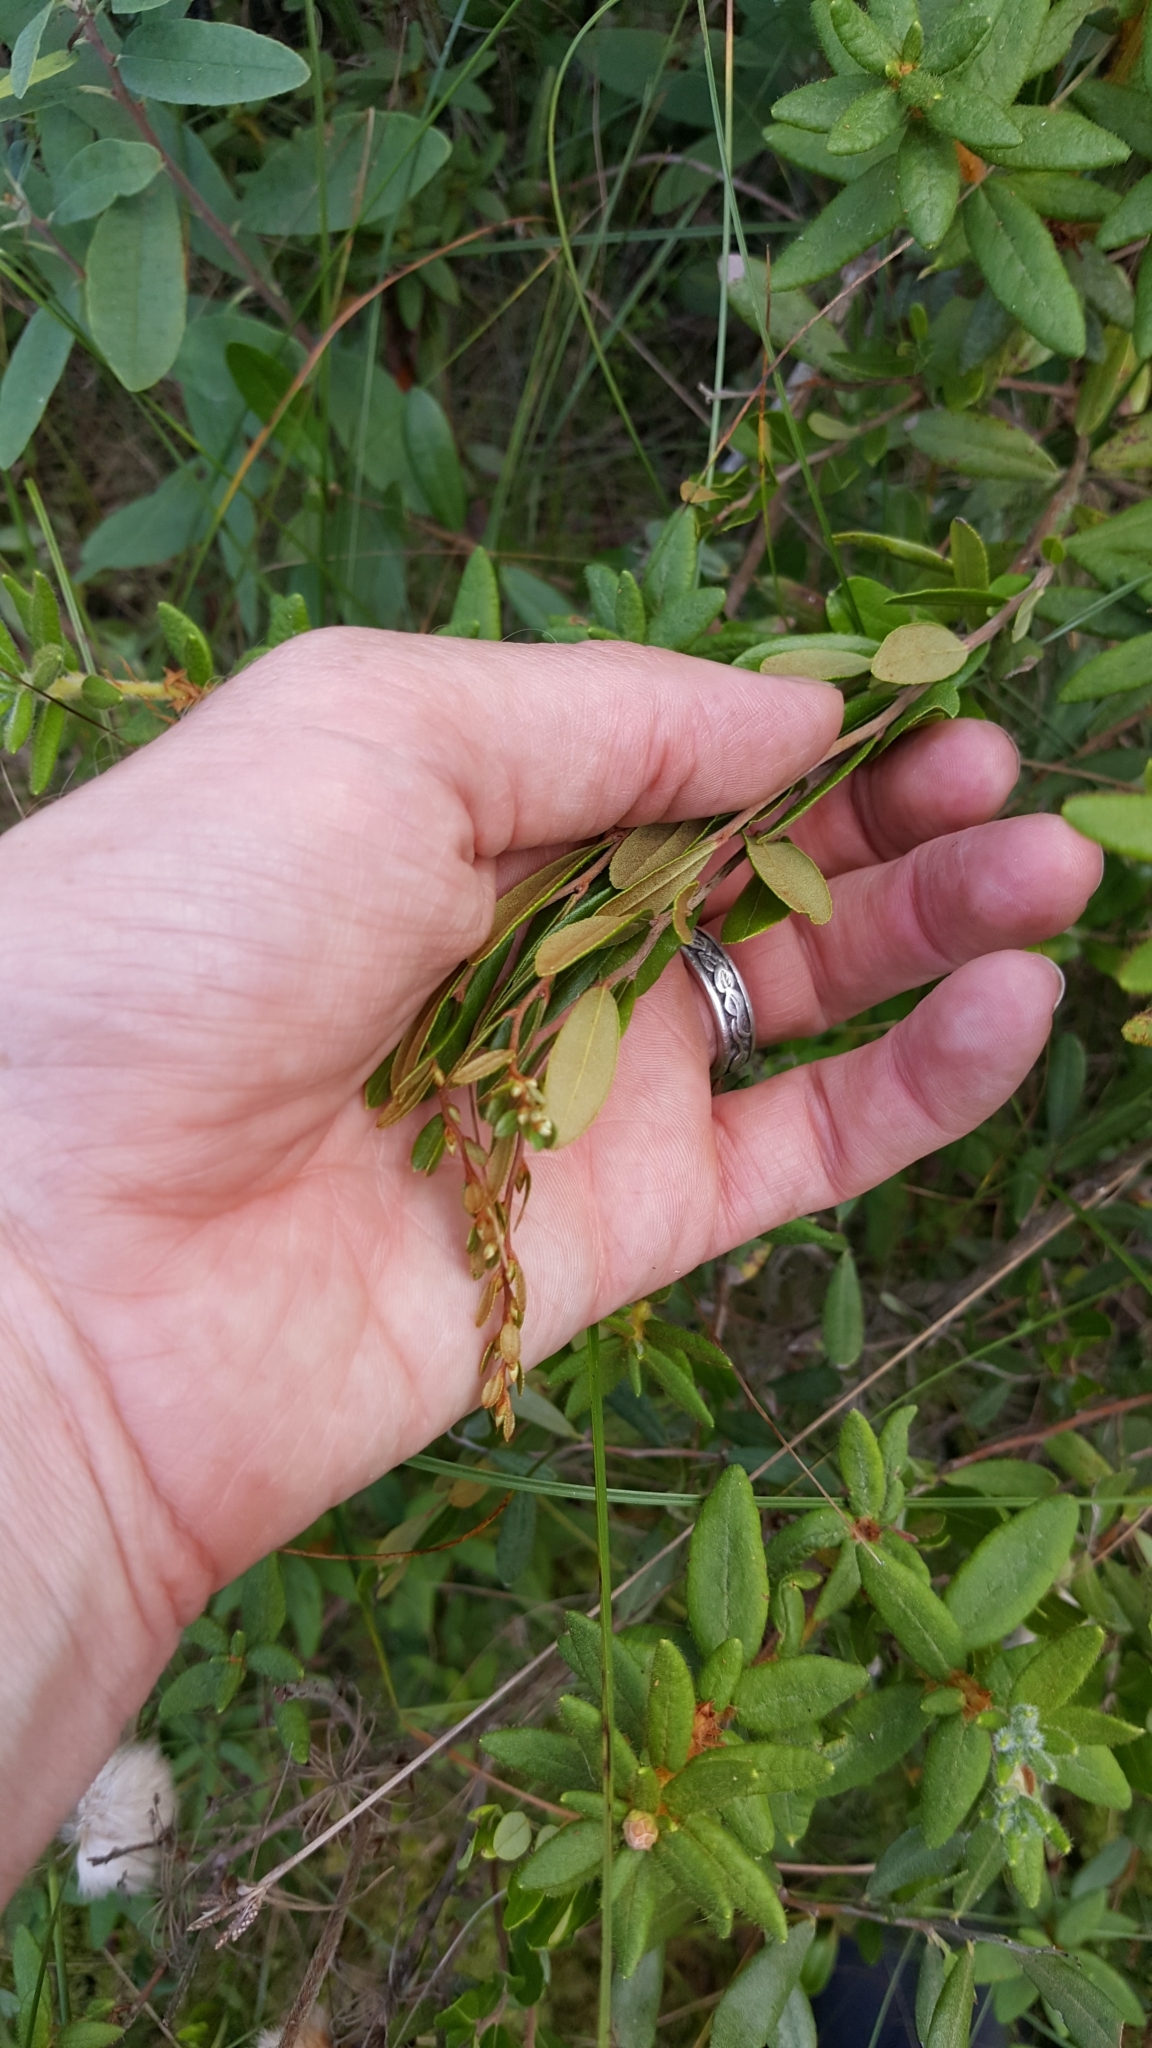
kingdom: Plantae
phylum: Tracheophyta
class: Magnoliopsida
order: Ericales
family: Ericaceae
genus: Chamaedaphne
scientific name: Chamaedaphne calyculata
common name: Leatherleaf
